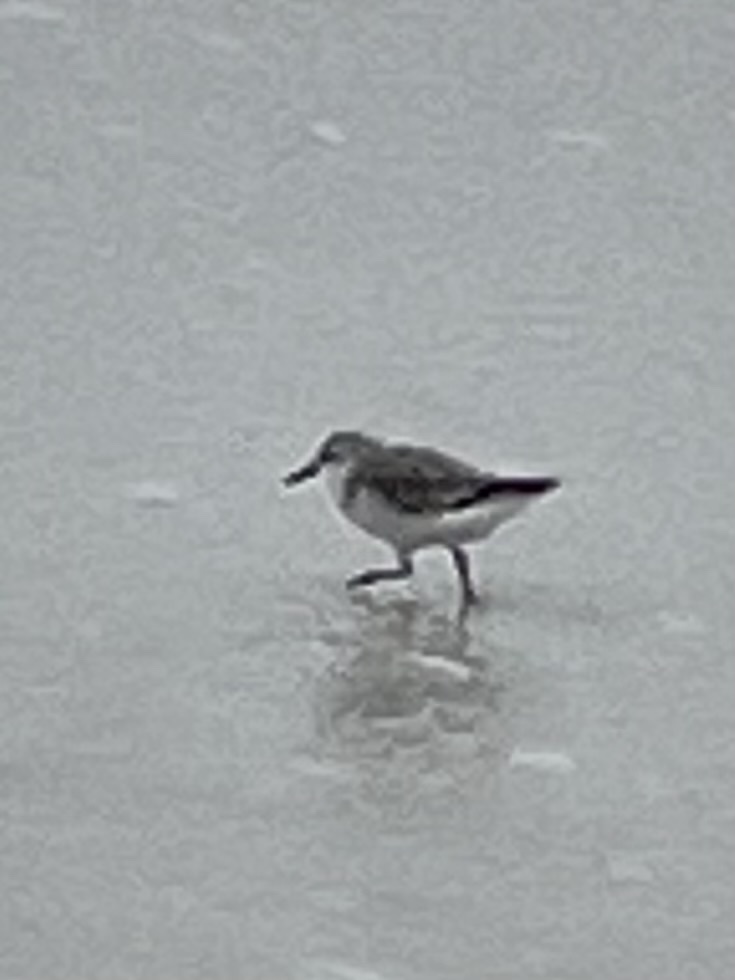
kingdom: Animalia
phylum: Chordata
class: Aves
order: Charadriiformes
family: Scolopacidae
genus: Calidris
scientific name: Calidris alba
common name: Sanderling
